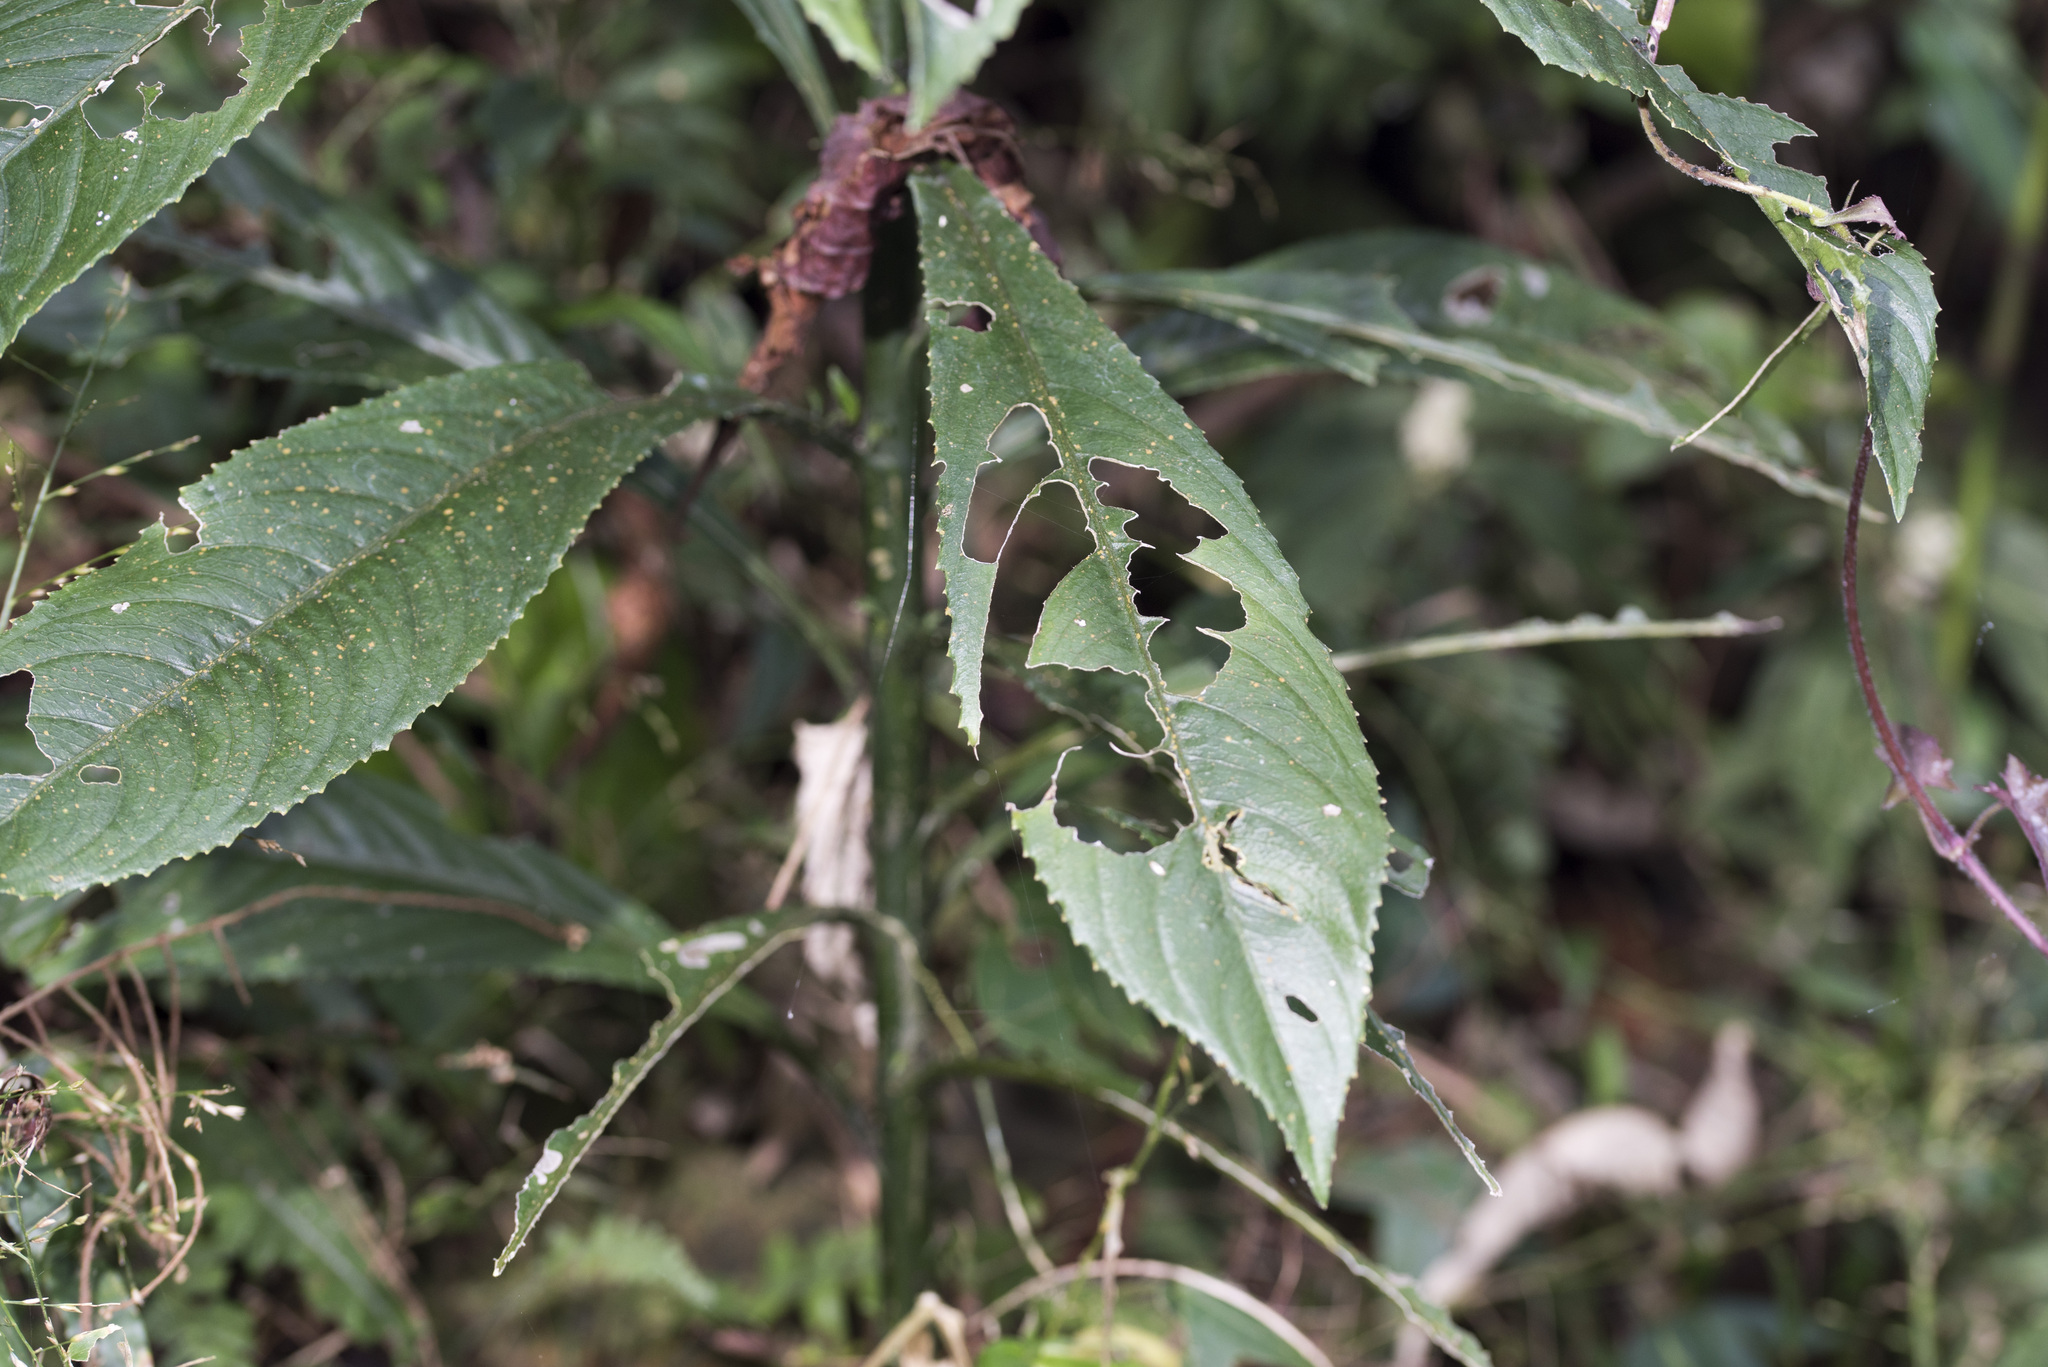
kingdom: Plantae
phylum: Tracheophyta
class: Magnoliopsida
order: Asterales
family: Asteraceae
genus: Blumea
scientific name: Blumea lanceolaria
